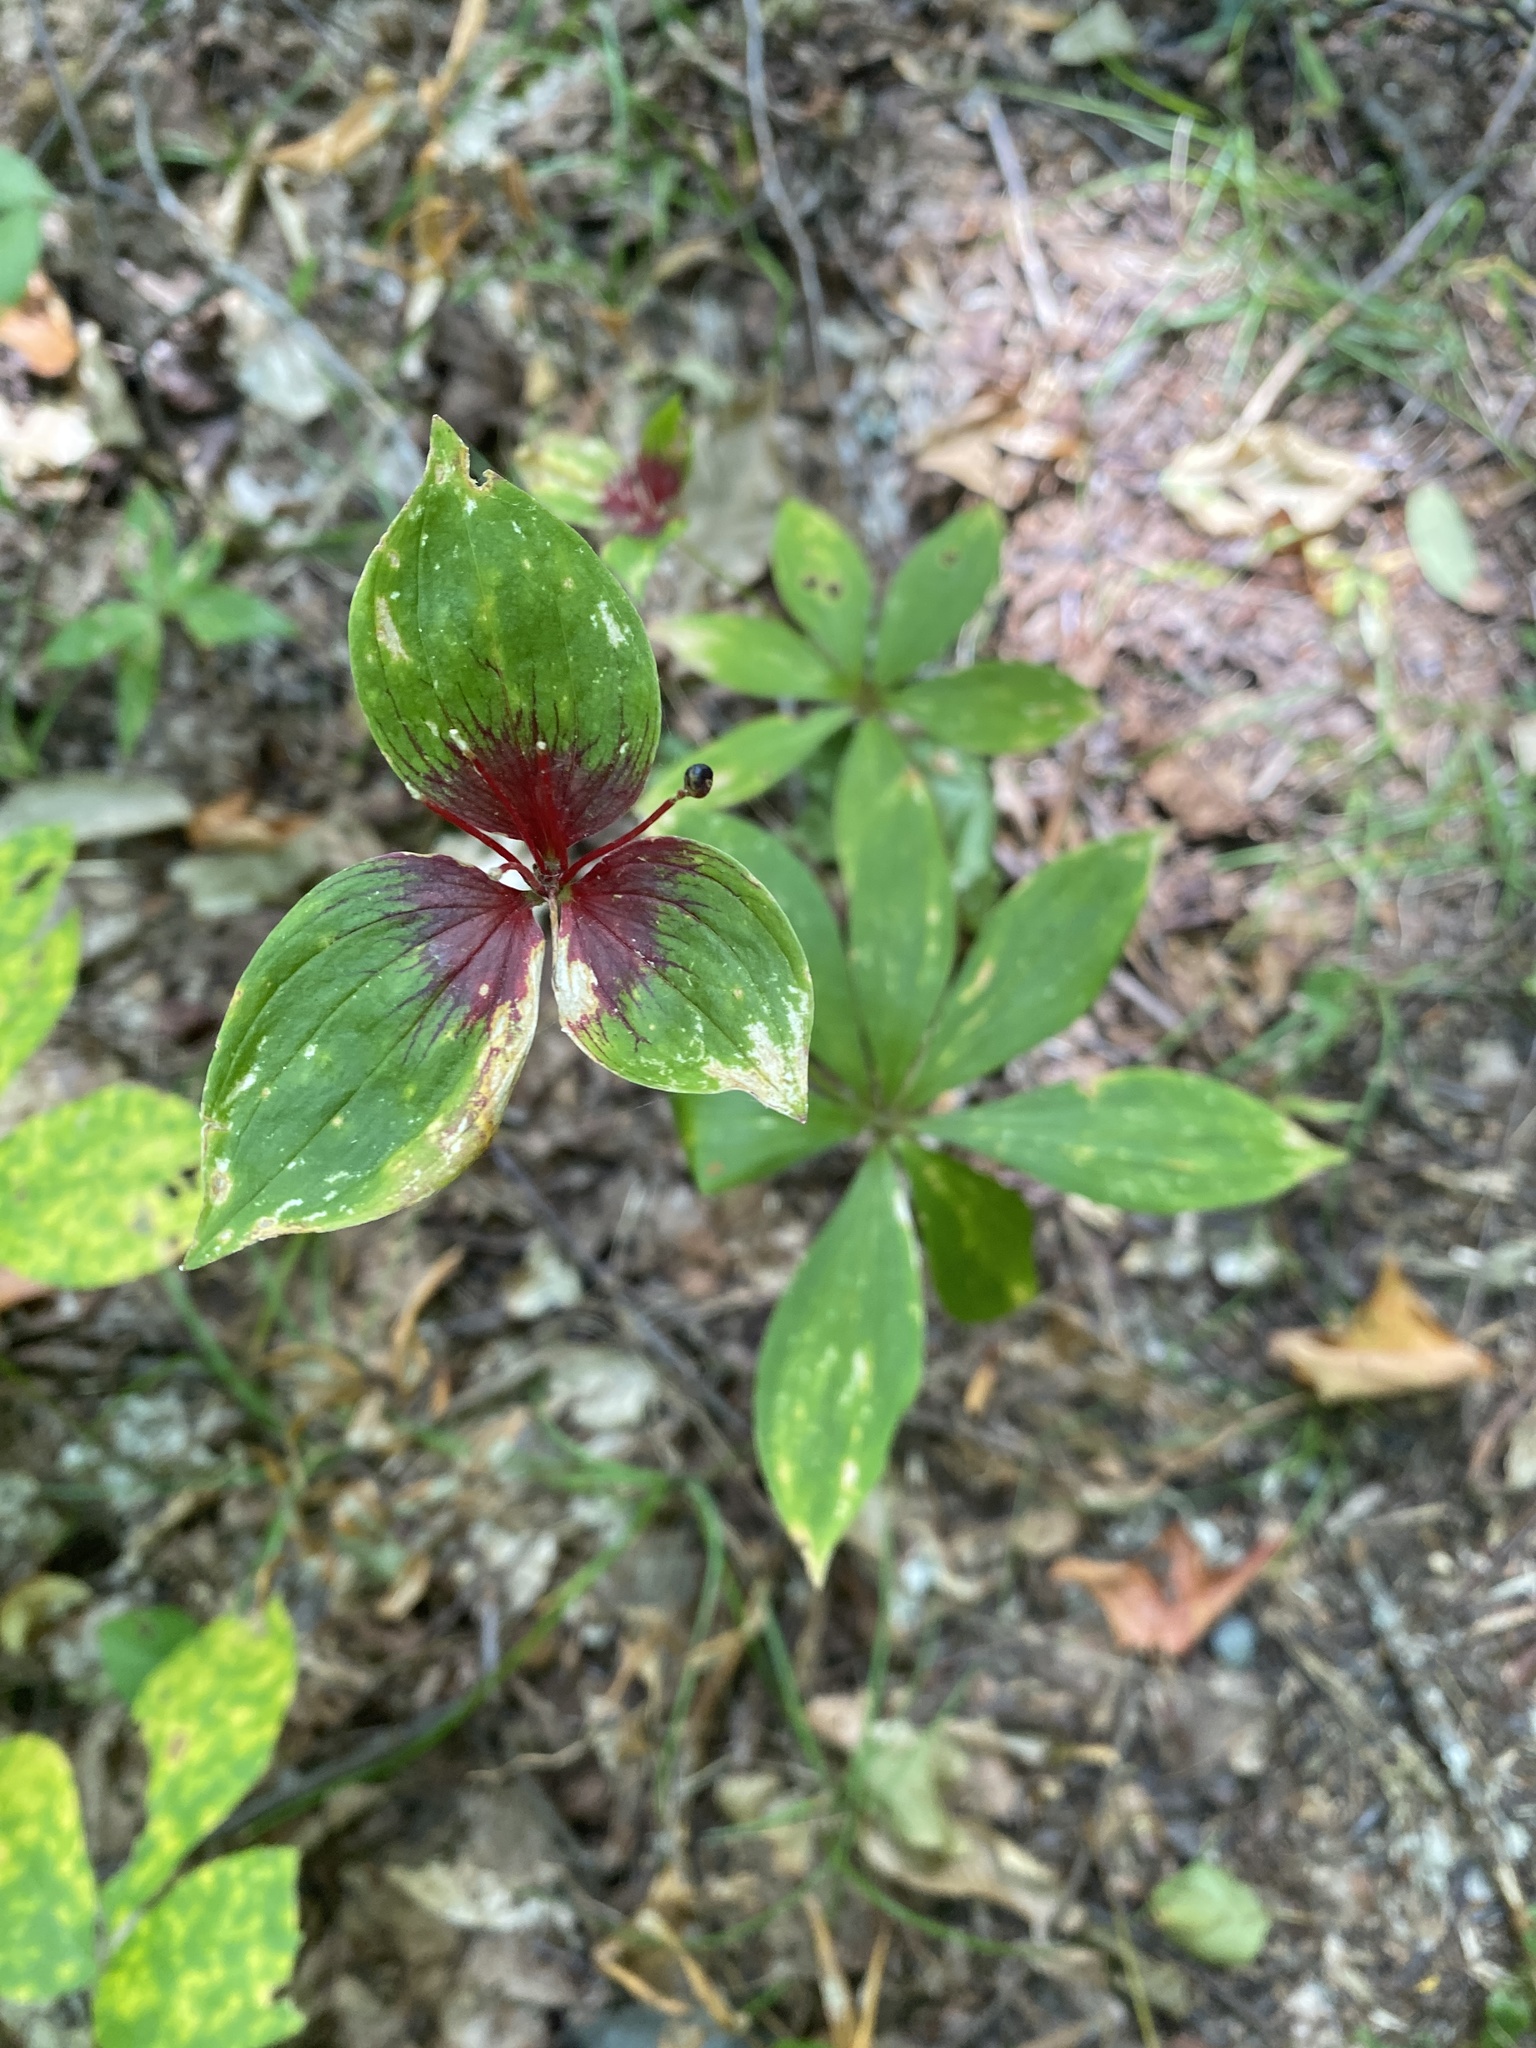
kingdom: Plantae
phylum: Tracheophyta
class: Liliopsida
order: Liliales
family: Liliaceae
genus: Medeola
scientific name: Medeola virginiana
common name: Indian cucumber-root
